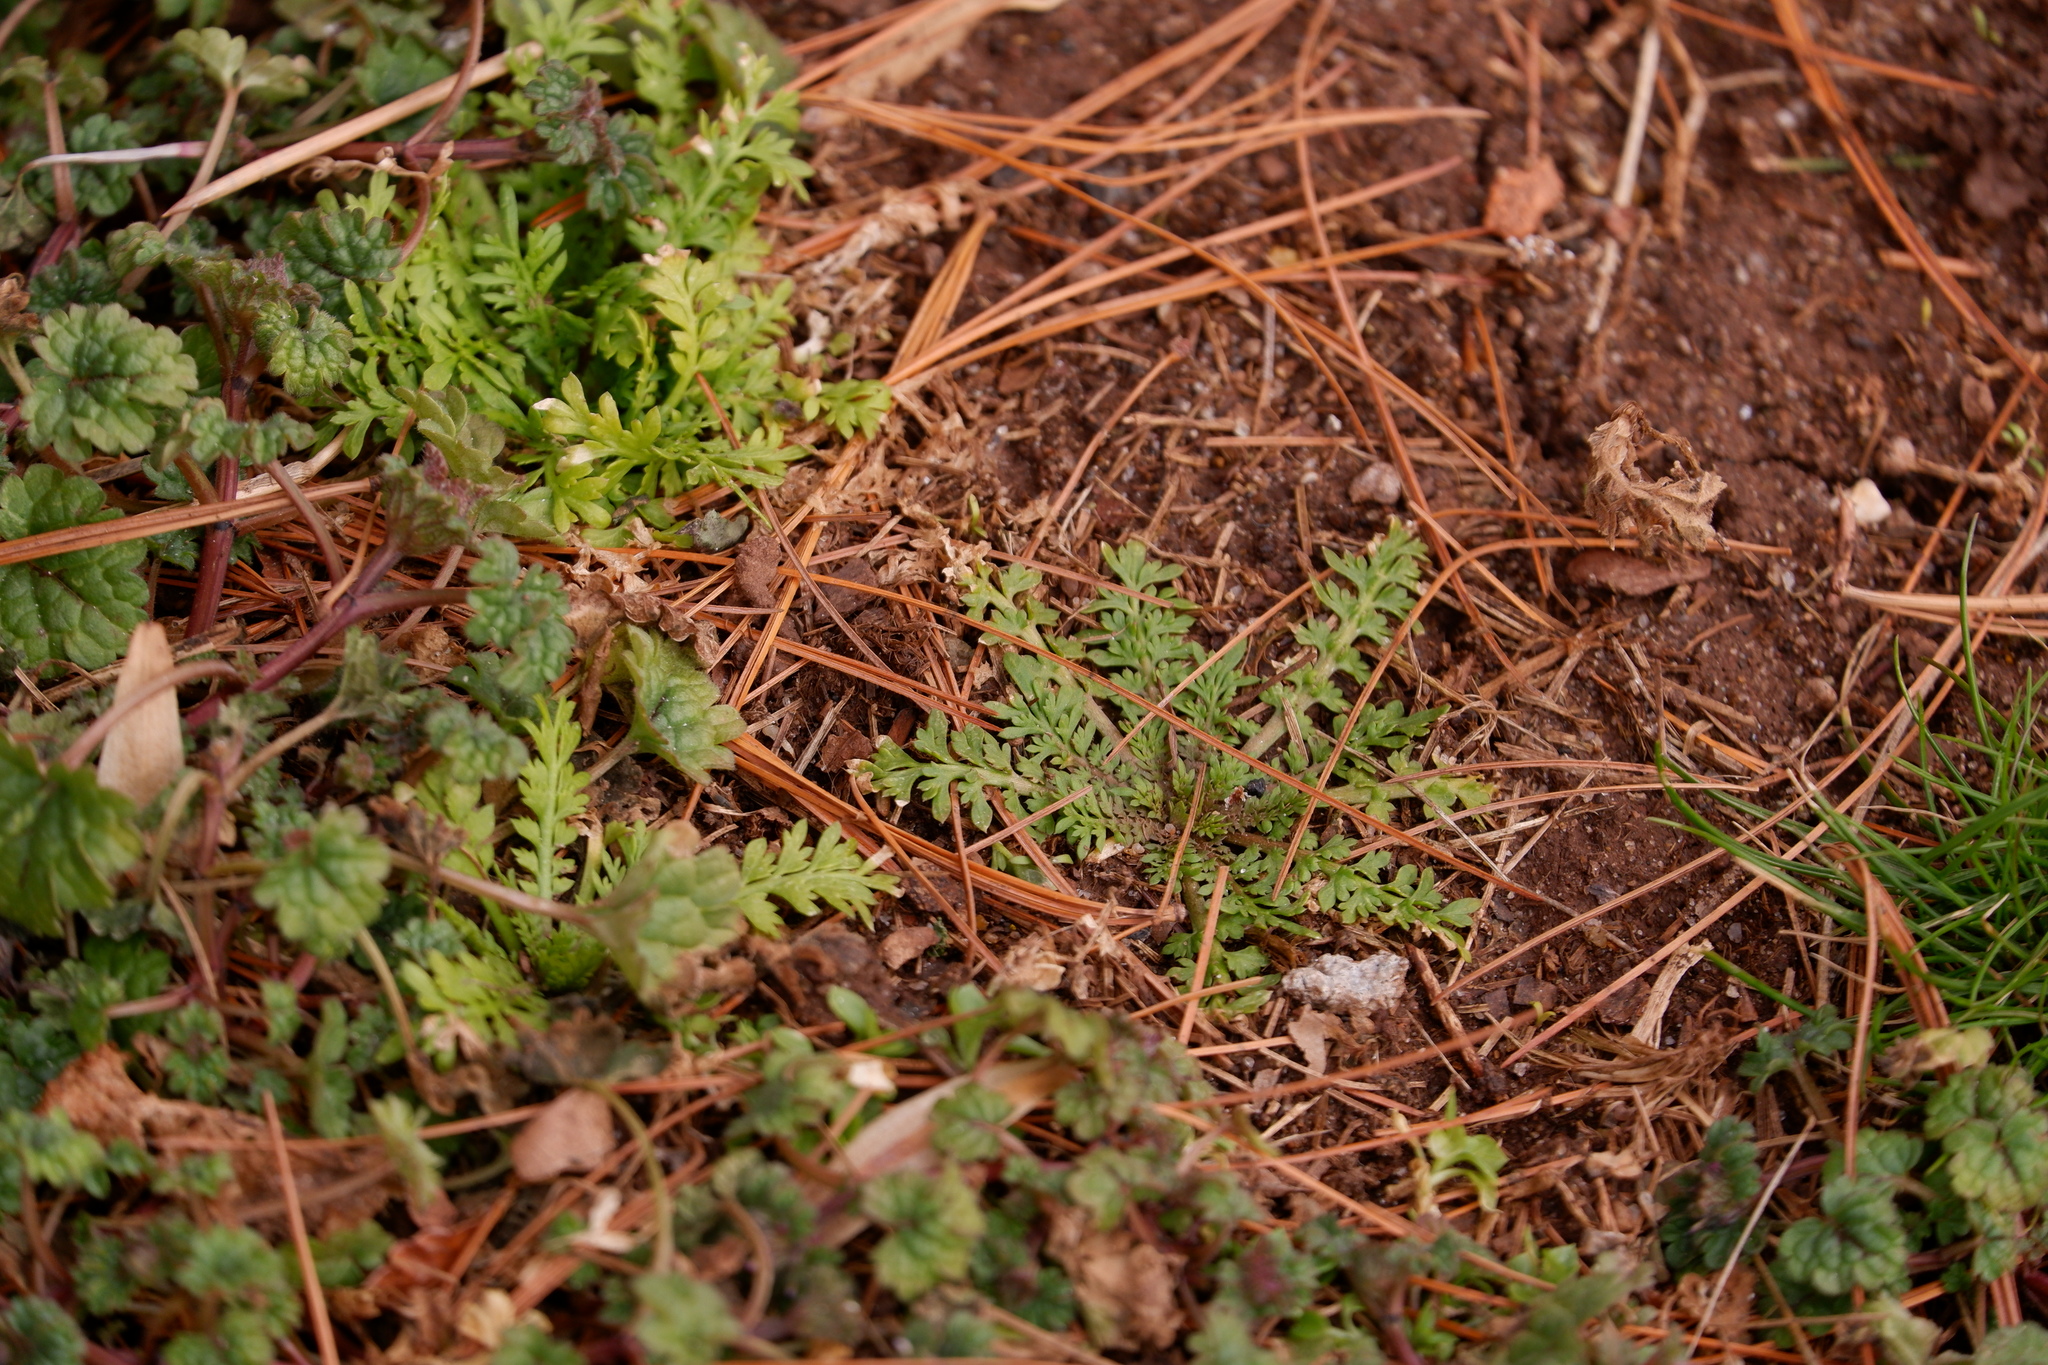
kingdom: Plantae
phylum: Tracheophyta
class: Magnoliopsida
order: Brassicales
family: Brassicaceae
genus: Lepidium
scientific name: Lepidium didymum
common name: Lesser swinecress
